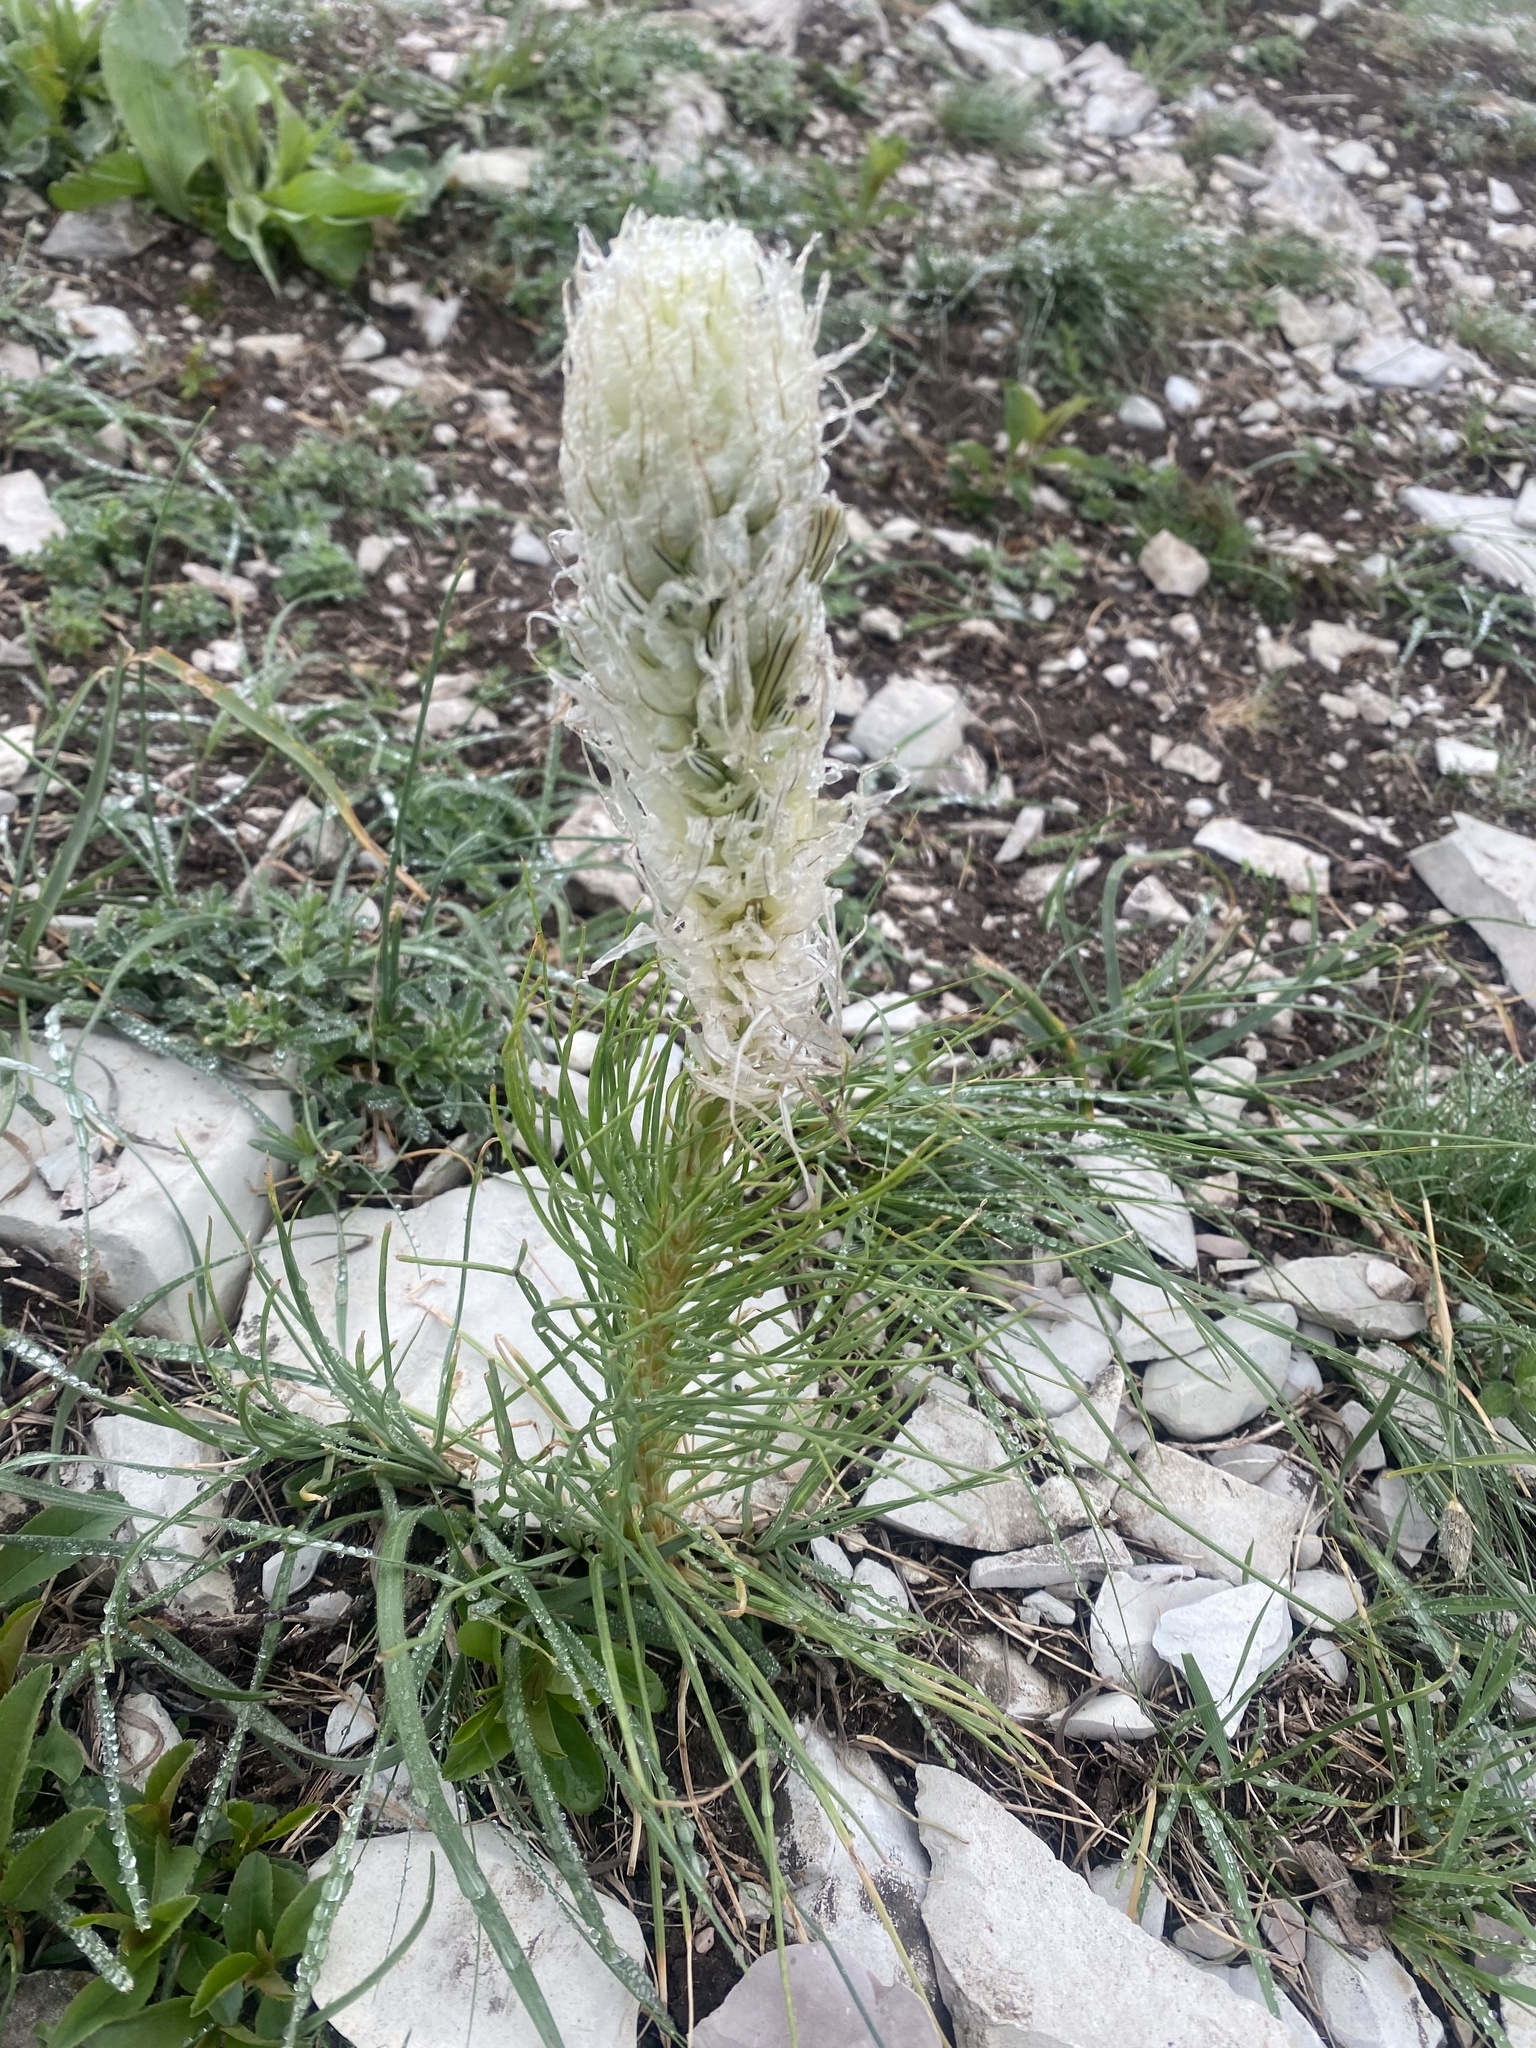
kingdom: Plantae
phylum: Tracheophyta
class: Liliopsida
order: Asparagales
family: Asphodelaceae
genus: Asphodeline
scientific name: Asphodeline taurica
